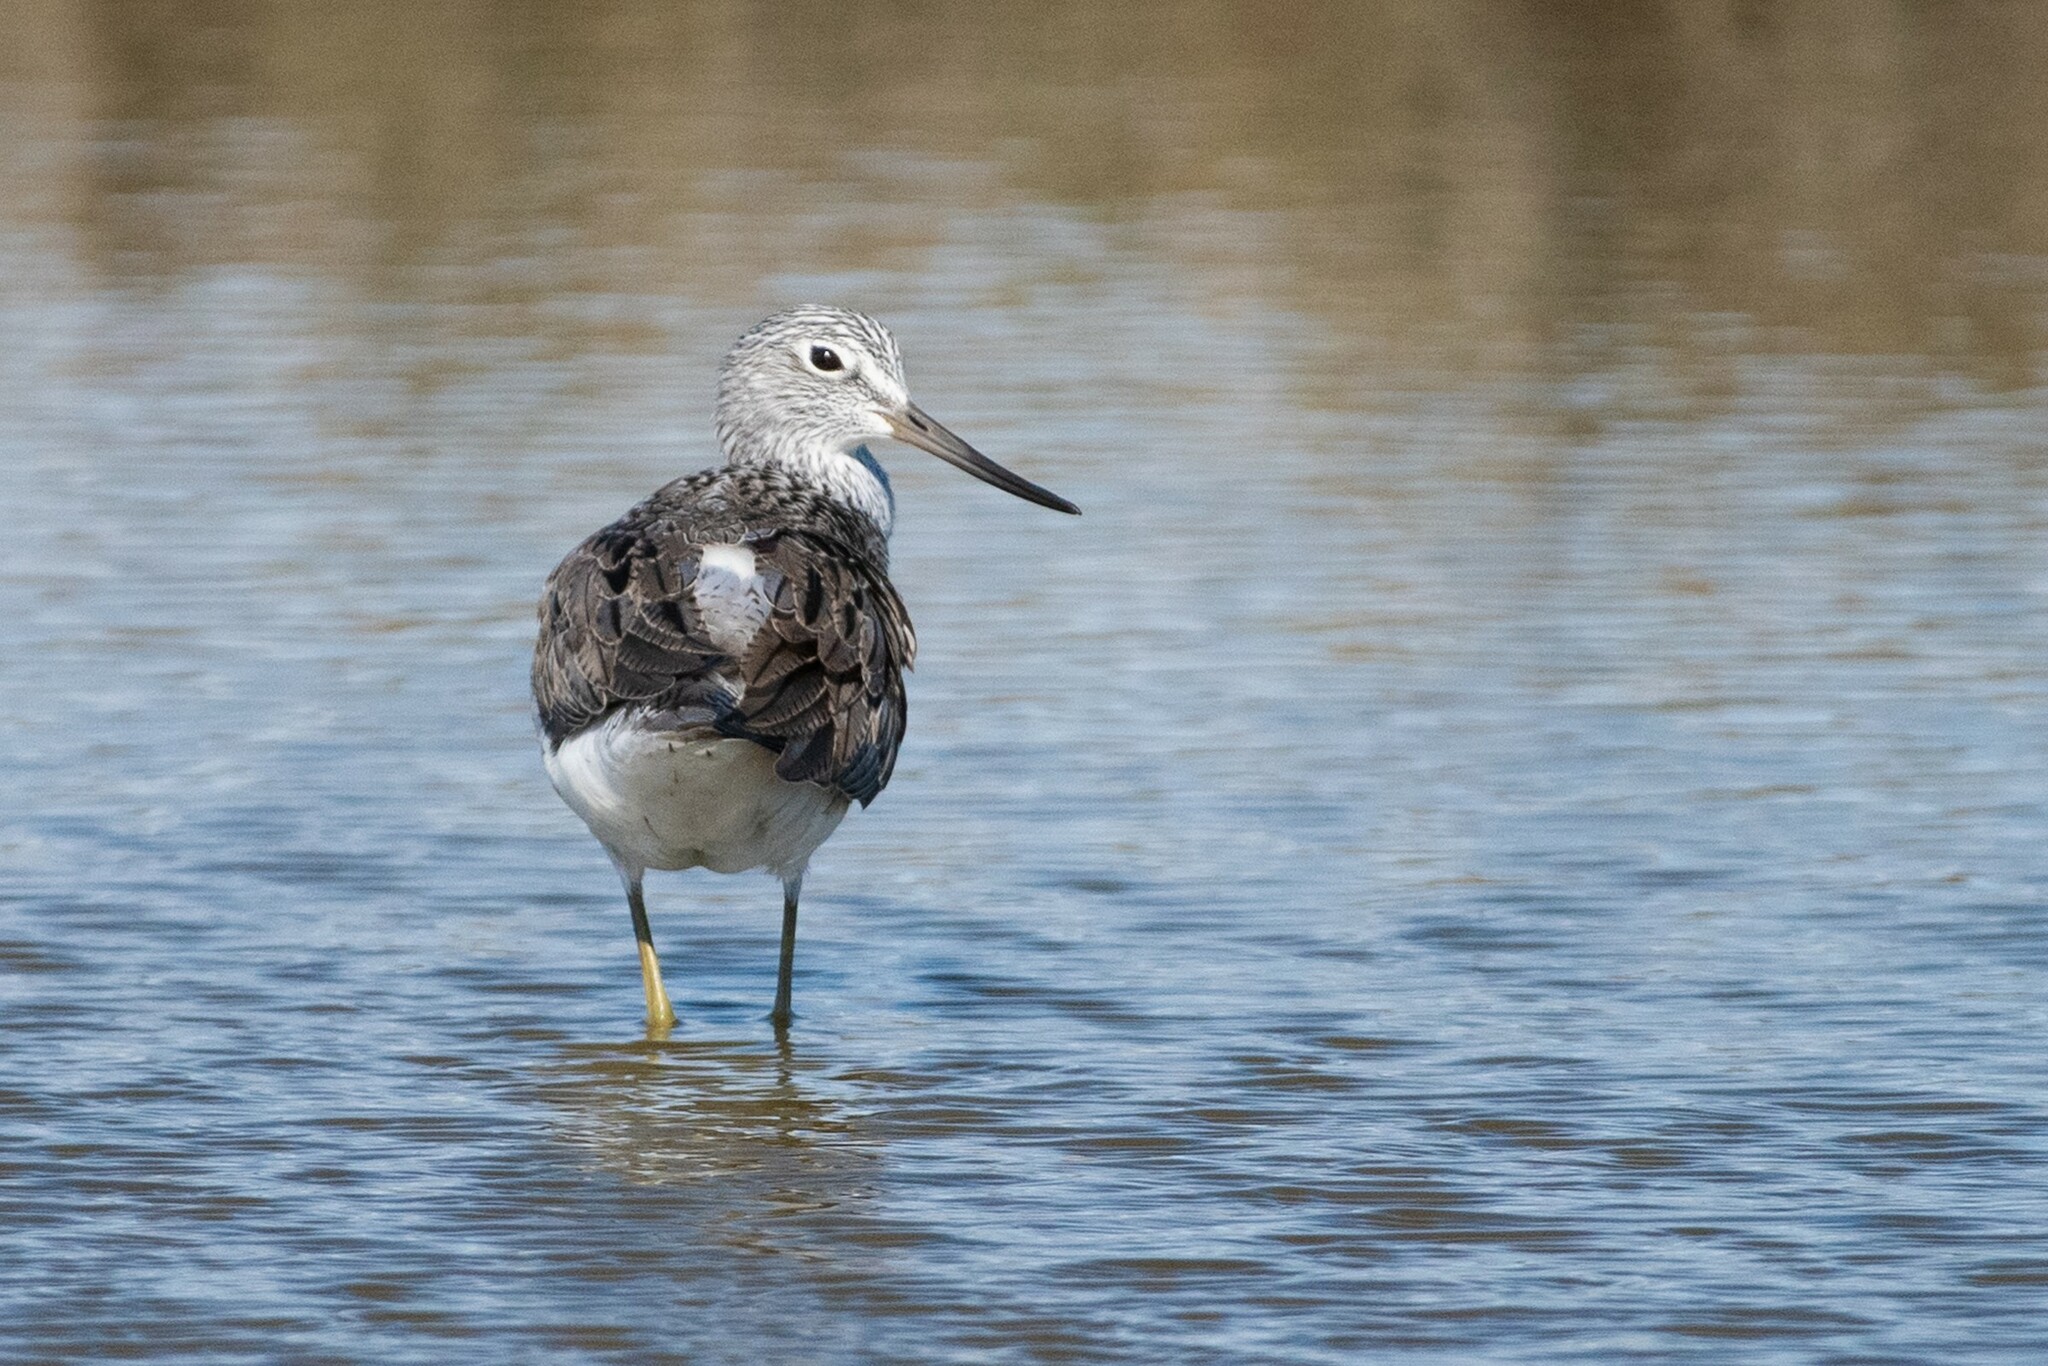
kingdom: Animalia
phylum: Chordata
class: Aves
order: Charadriiformes
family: Scolopacidae
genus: Tringa
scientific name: Tringa nebularia
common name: Common greenshank
